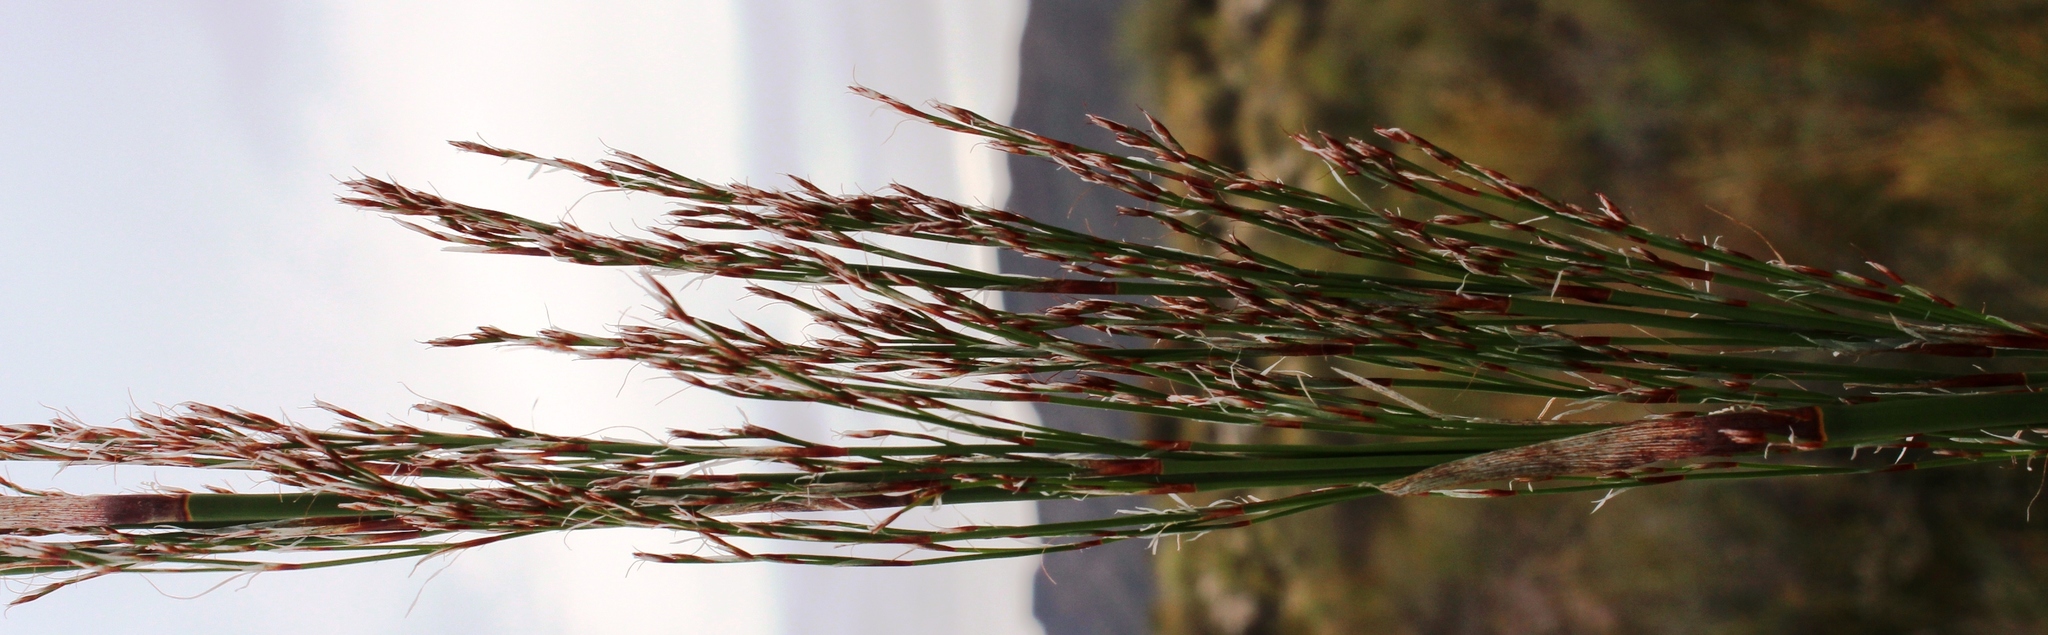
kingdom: Plantae
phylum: Tracheophyta
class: Liliopsida
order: Poales
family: Restionaceae
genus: Restio
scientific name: Restio paniculatus
